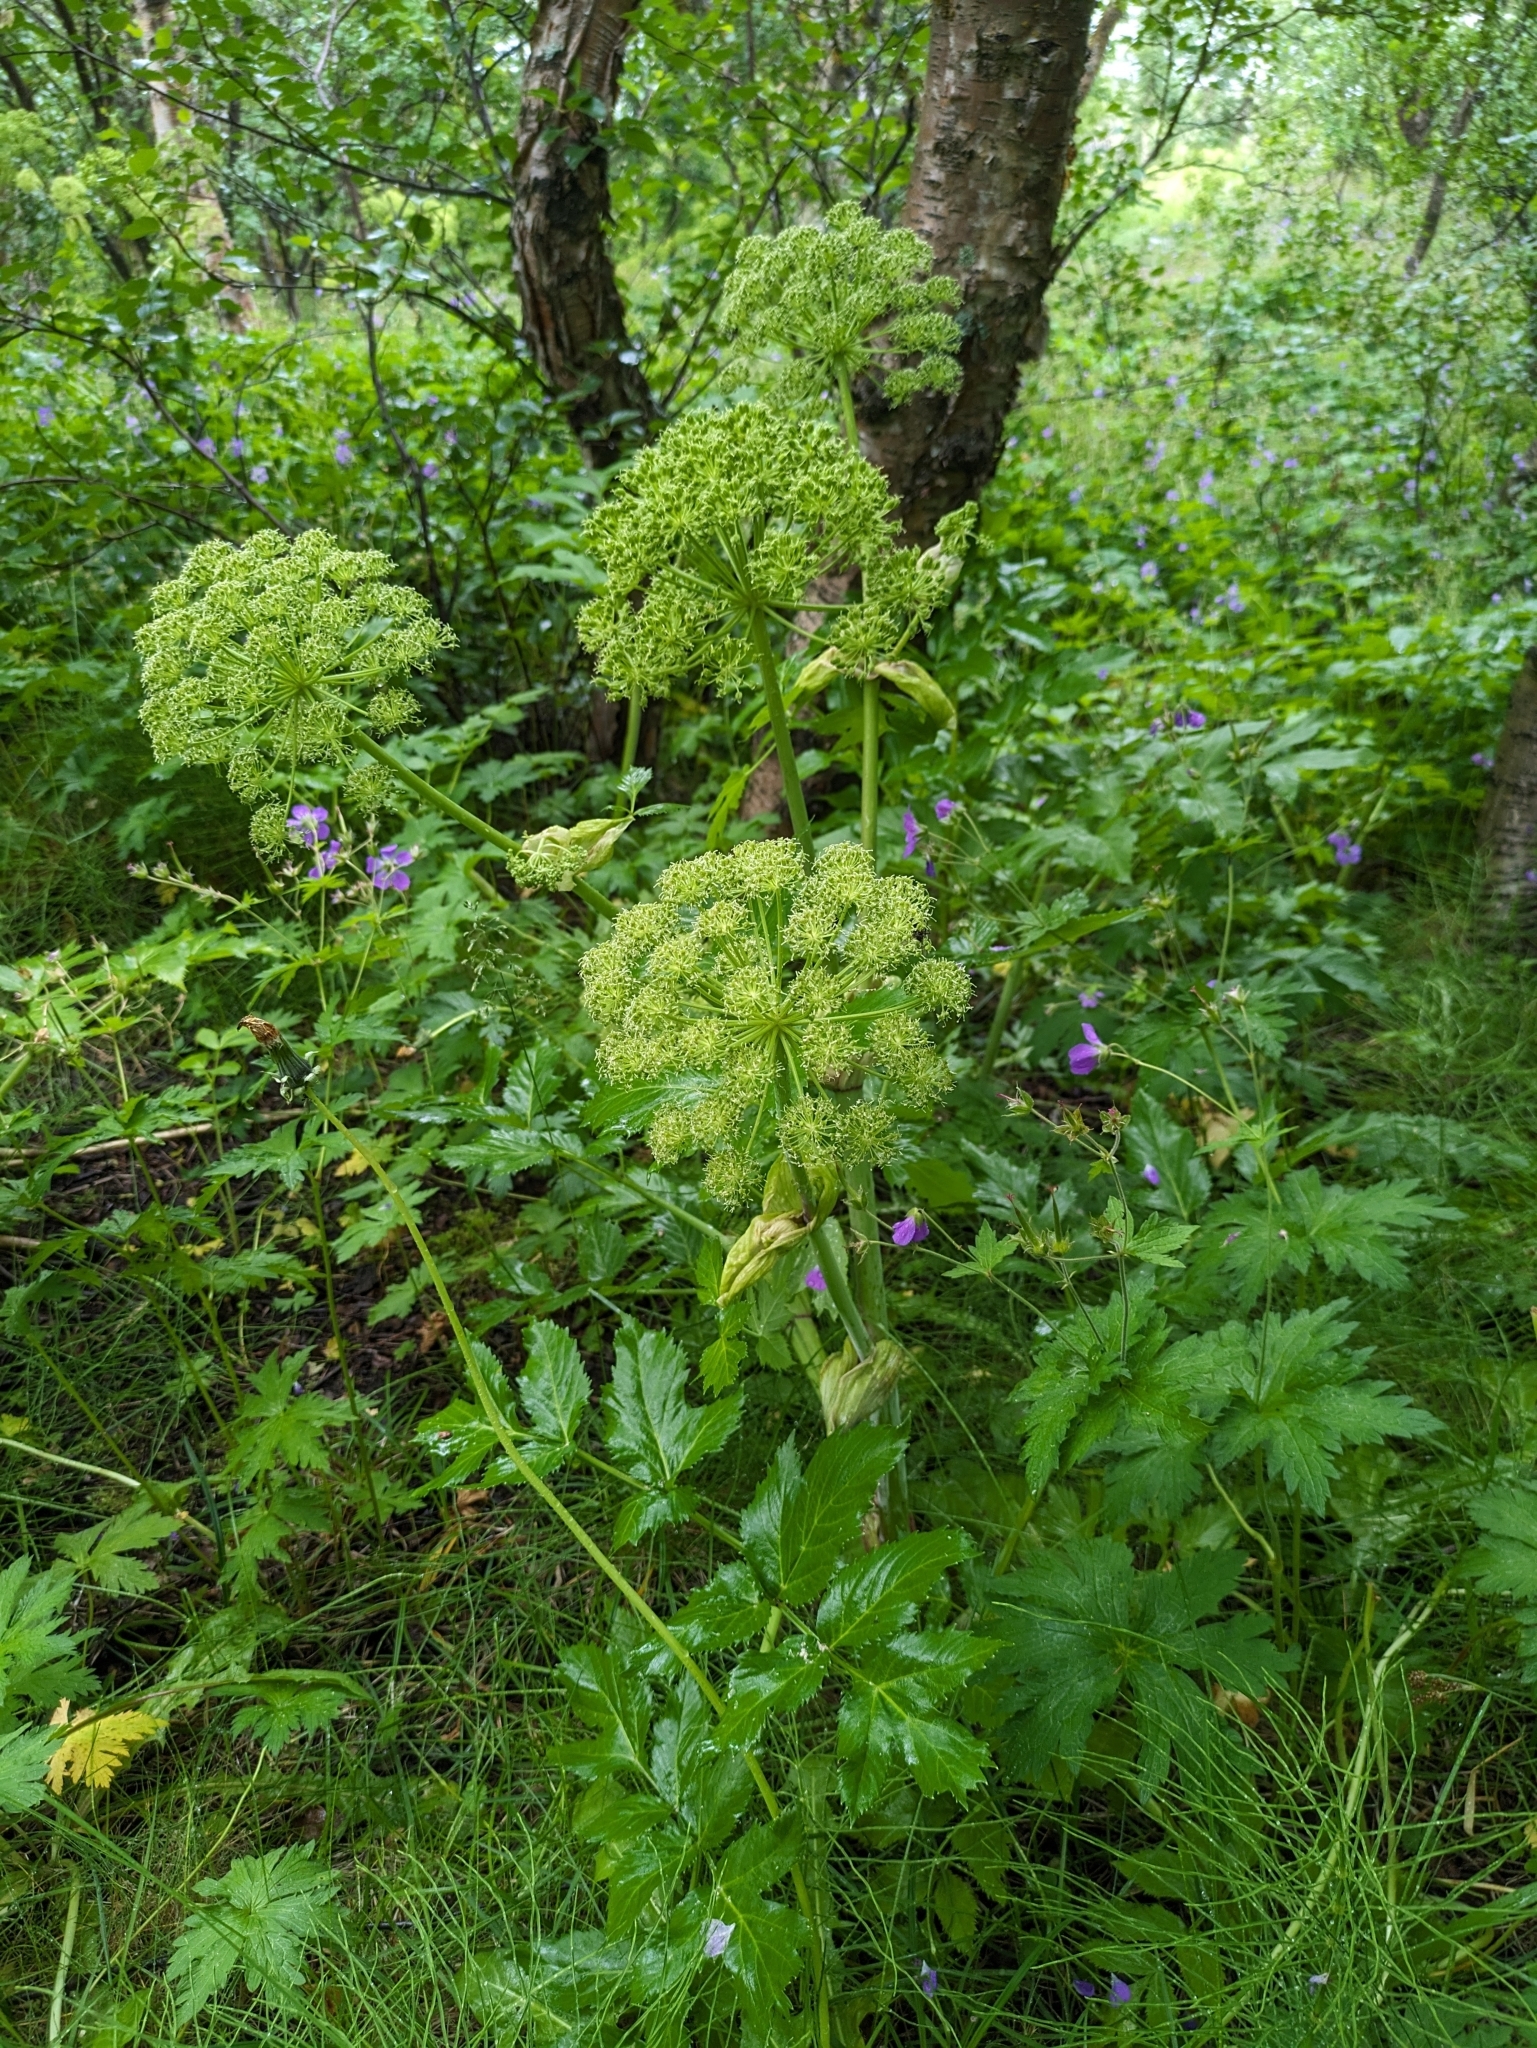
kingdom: Plantae
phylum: Tracheophyta
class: Magnoliopsida
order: Apiales
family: Apiaceae
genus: Angelica
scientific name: Angelica archangelica
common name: Garden angelica
